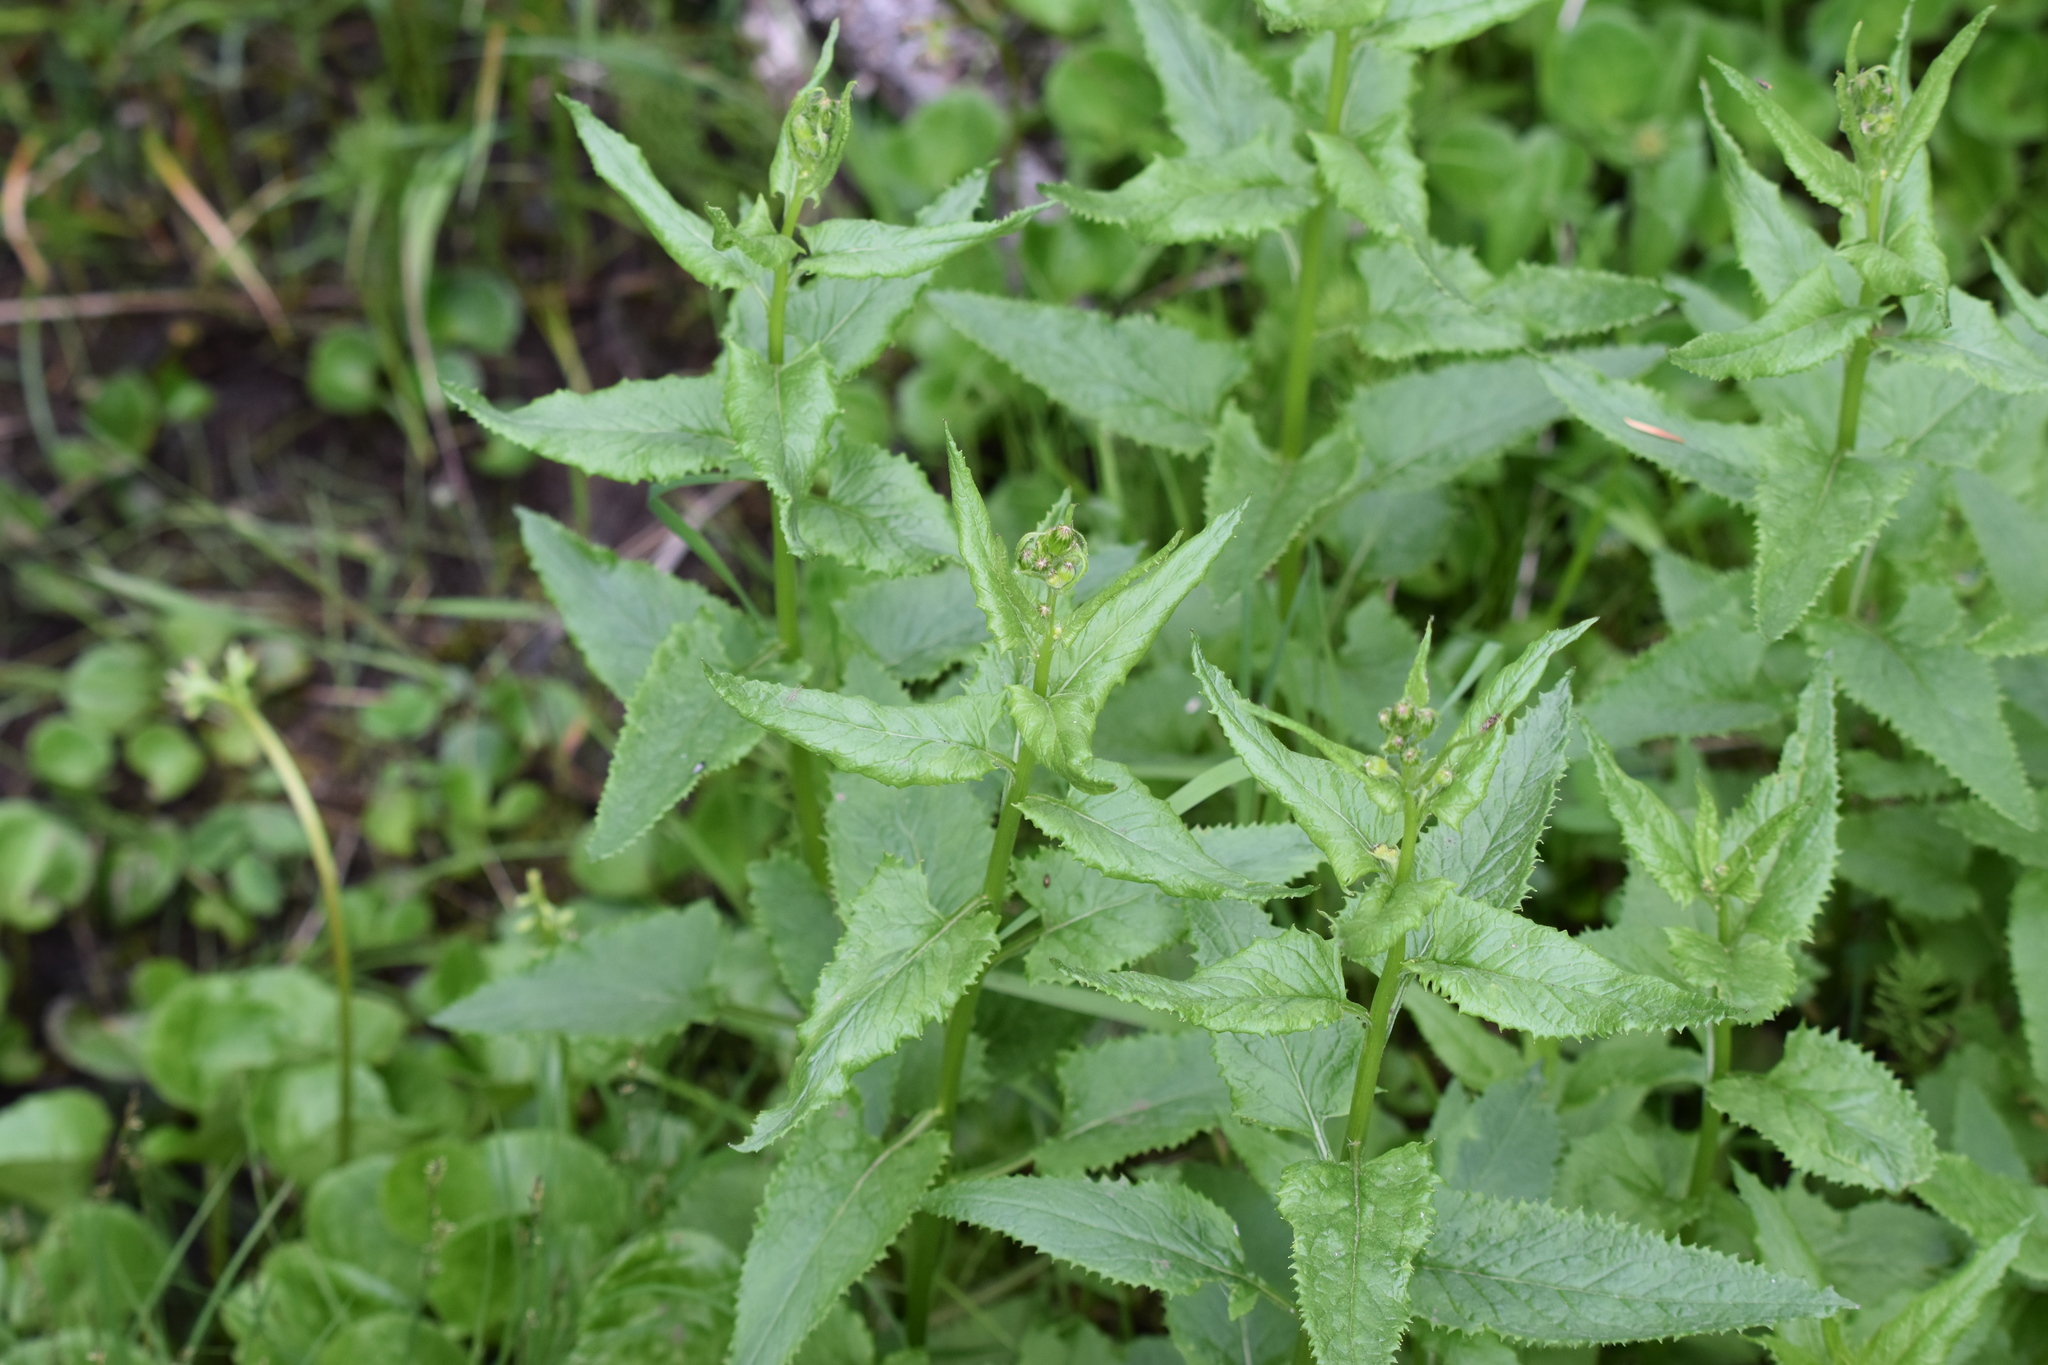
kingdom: Plantae
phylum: Tracheophyta
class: Magnoliopsida
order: Asterales
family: Asteraceae
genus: Senecio
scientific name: Senecio triangularis
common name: Arrowleaf butterweed
